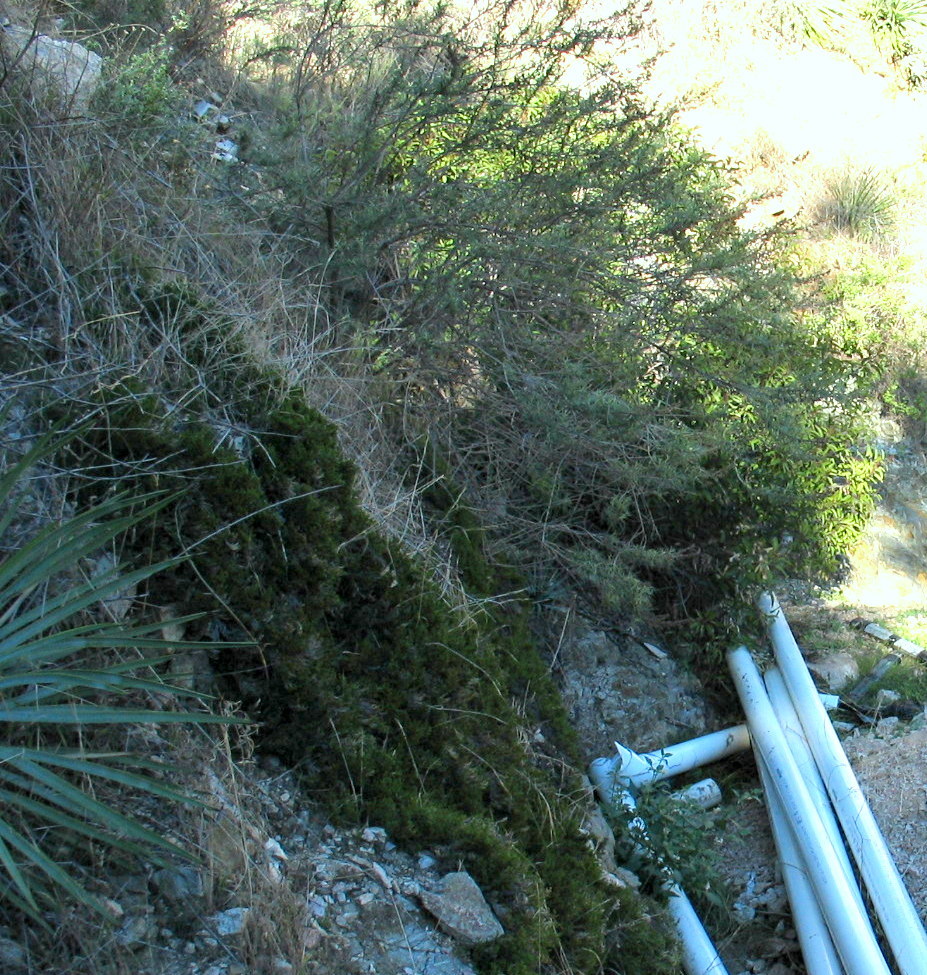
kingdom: Plantae
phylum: Tracheophyta
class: Liliopsida
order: Asparagales
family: Asparagaceae
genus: Hesperoyucca
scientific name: Hesperoyucca whipplei
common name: Our lord's-candle
